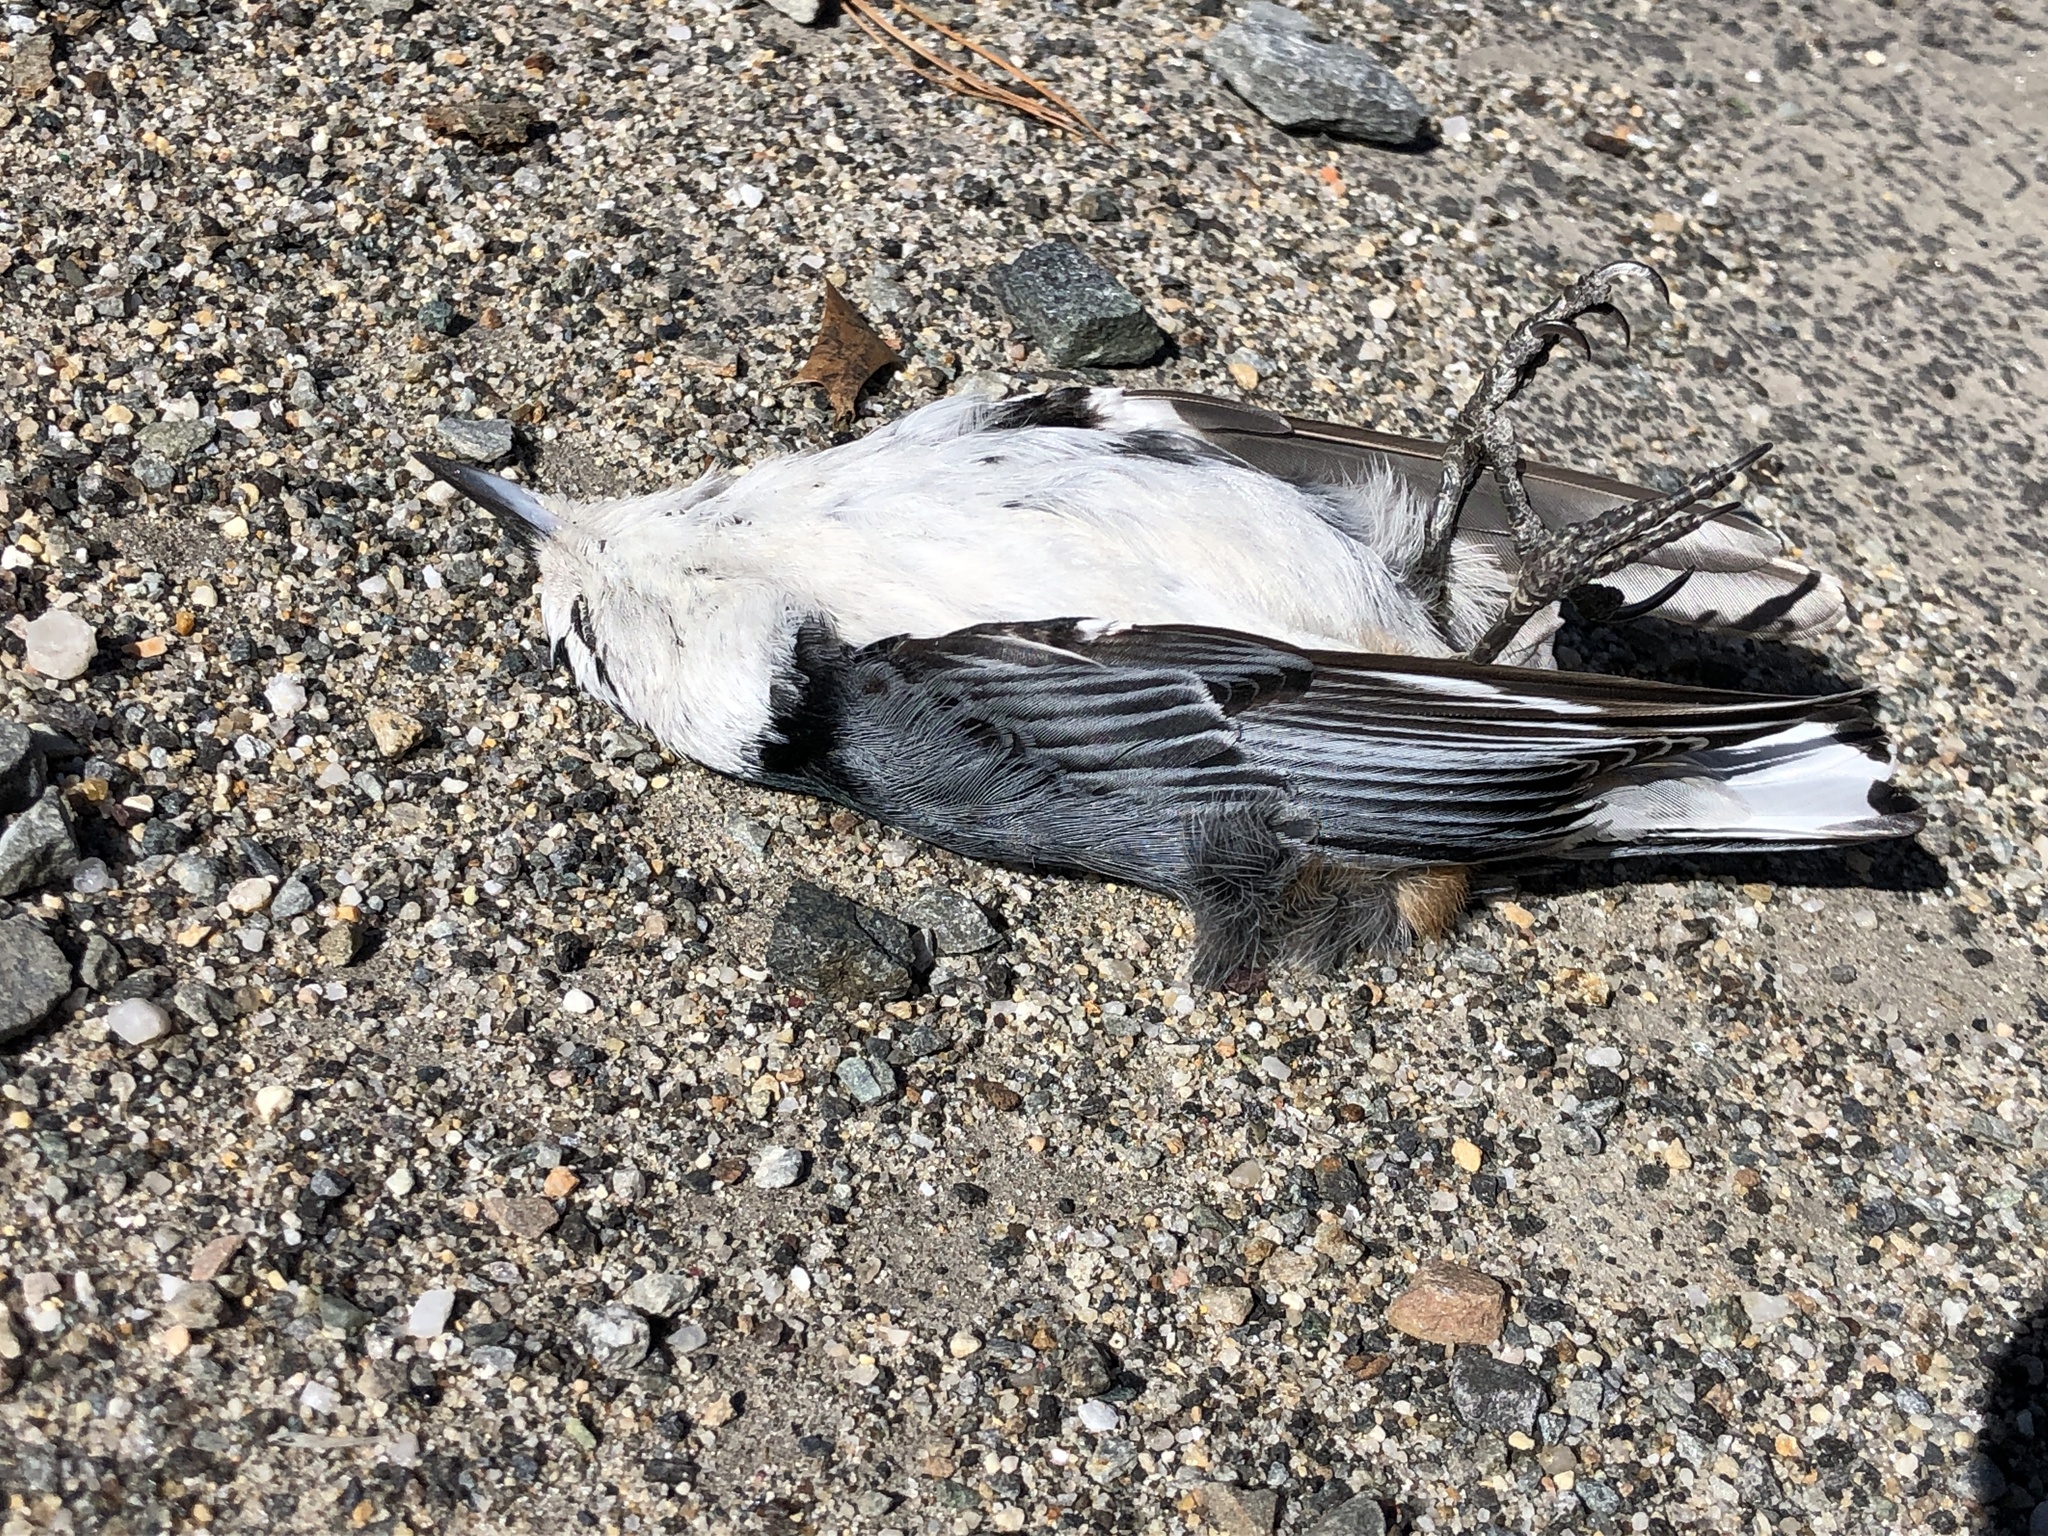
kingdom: Animalia
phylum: Chordata
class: Aves
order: Passeriformes
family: Sittidae
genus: Sitta
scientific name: Sitta carolinensis
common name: White-breasted nuthatch
